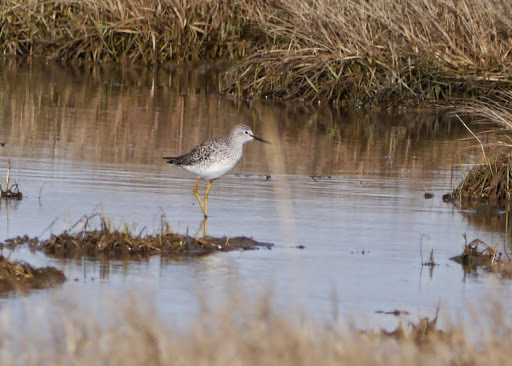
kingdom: Animalia
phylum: Chordata
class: Aves
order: Charadriiformes
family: Scolopacidae
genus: Tringa
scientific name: Tringa flavipes
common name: Lesser yellowlegs
